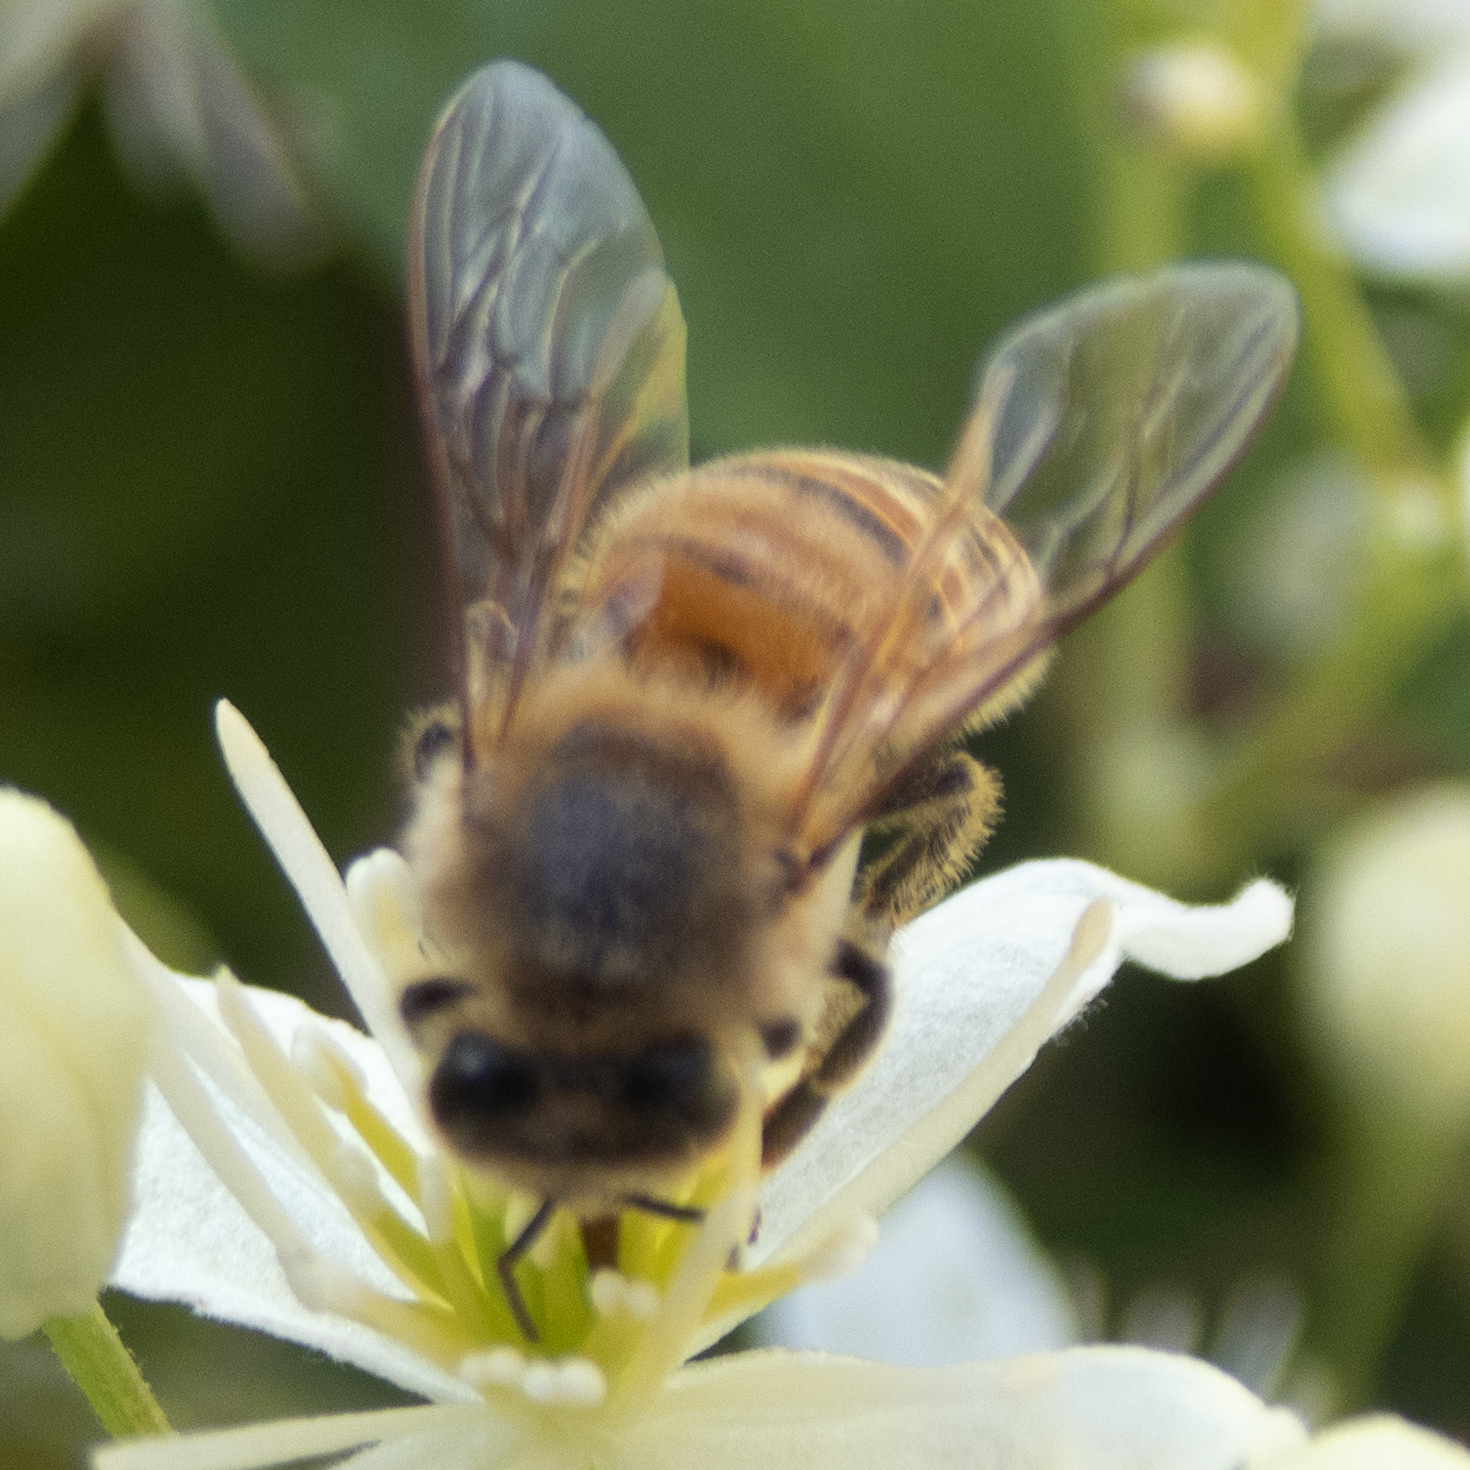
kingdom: Animalia
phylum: Arthropoda
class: Insecta
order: Hymenoptera
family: Apidae
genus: Apis
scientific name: Apis mellifera
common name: Honey bee
